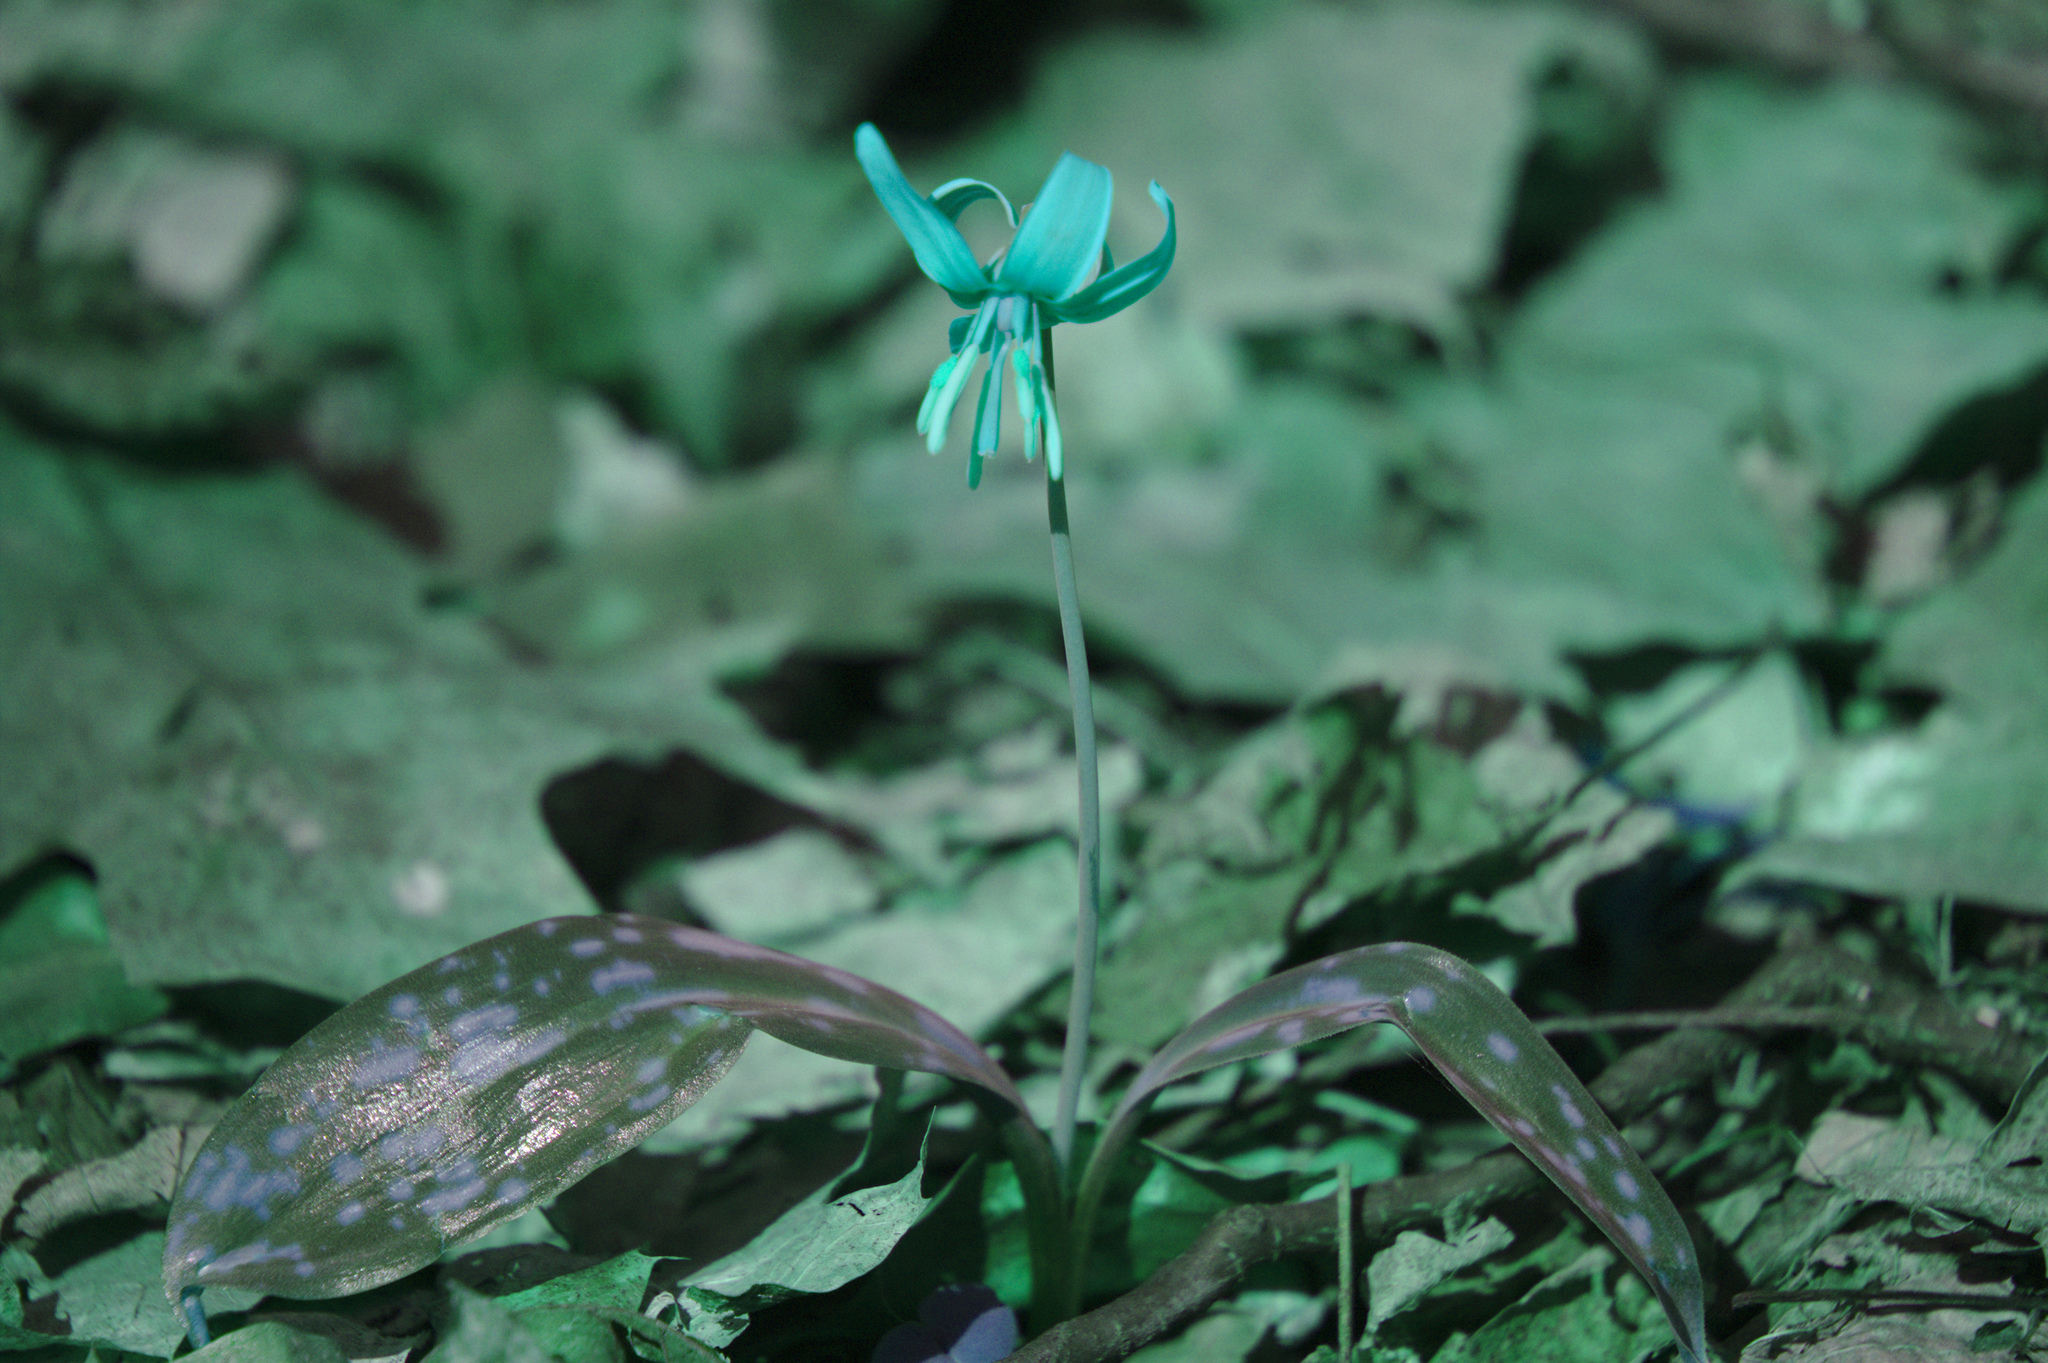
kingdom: Plantae
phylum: Tracheophyta
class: Liliopsida
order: Liliales
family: Liliaceae
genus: Erythronium
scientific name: Erythronium americanum
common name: Yellow adder's-tongue
